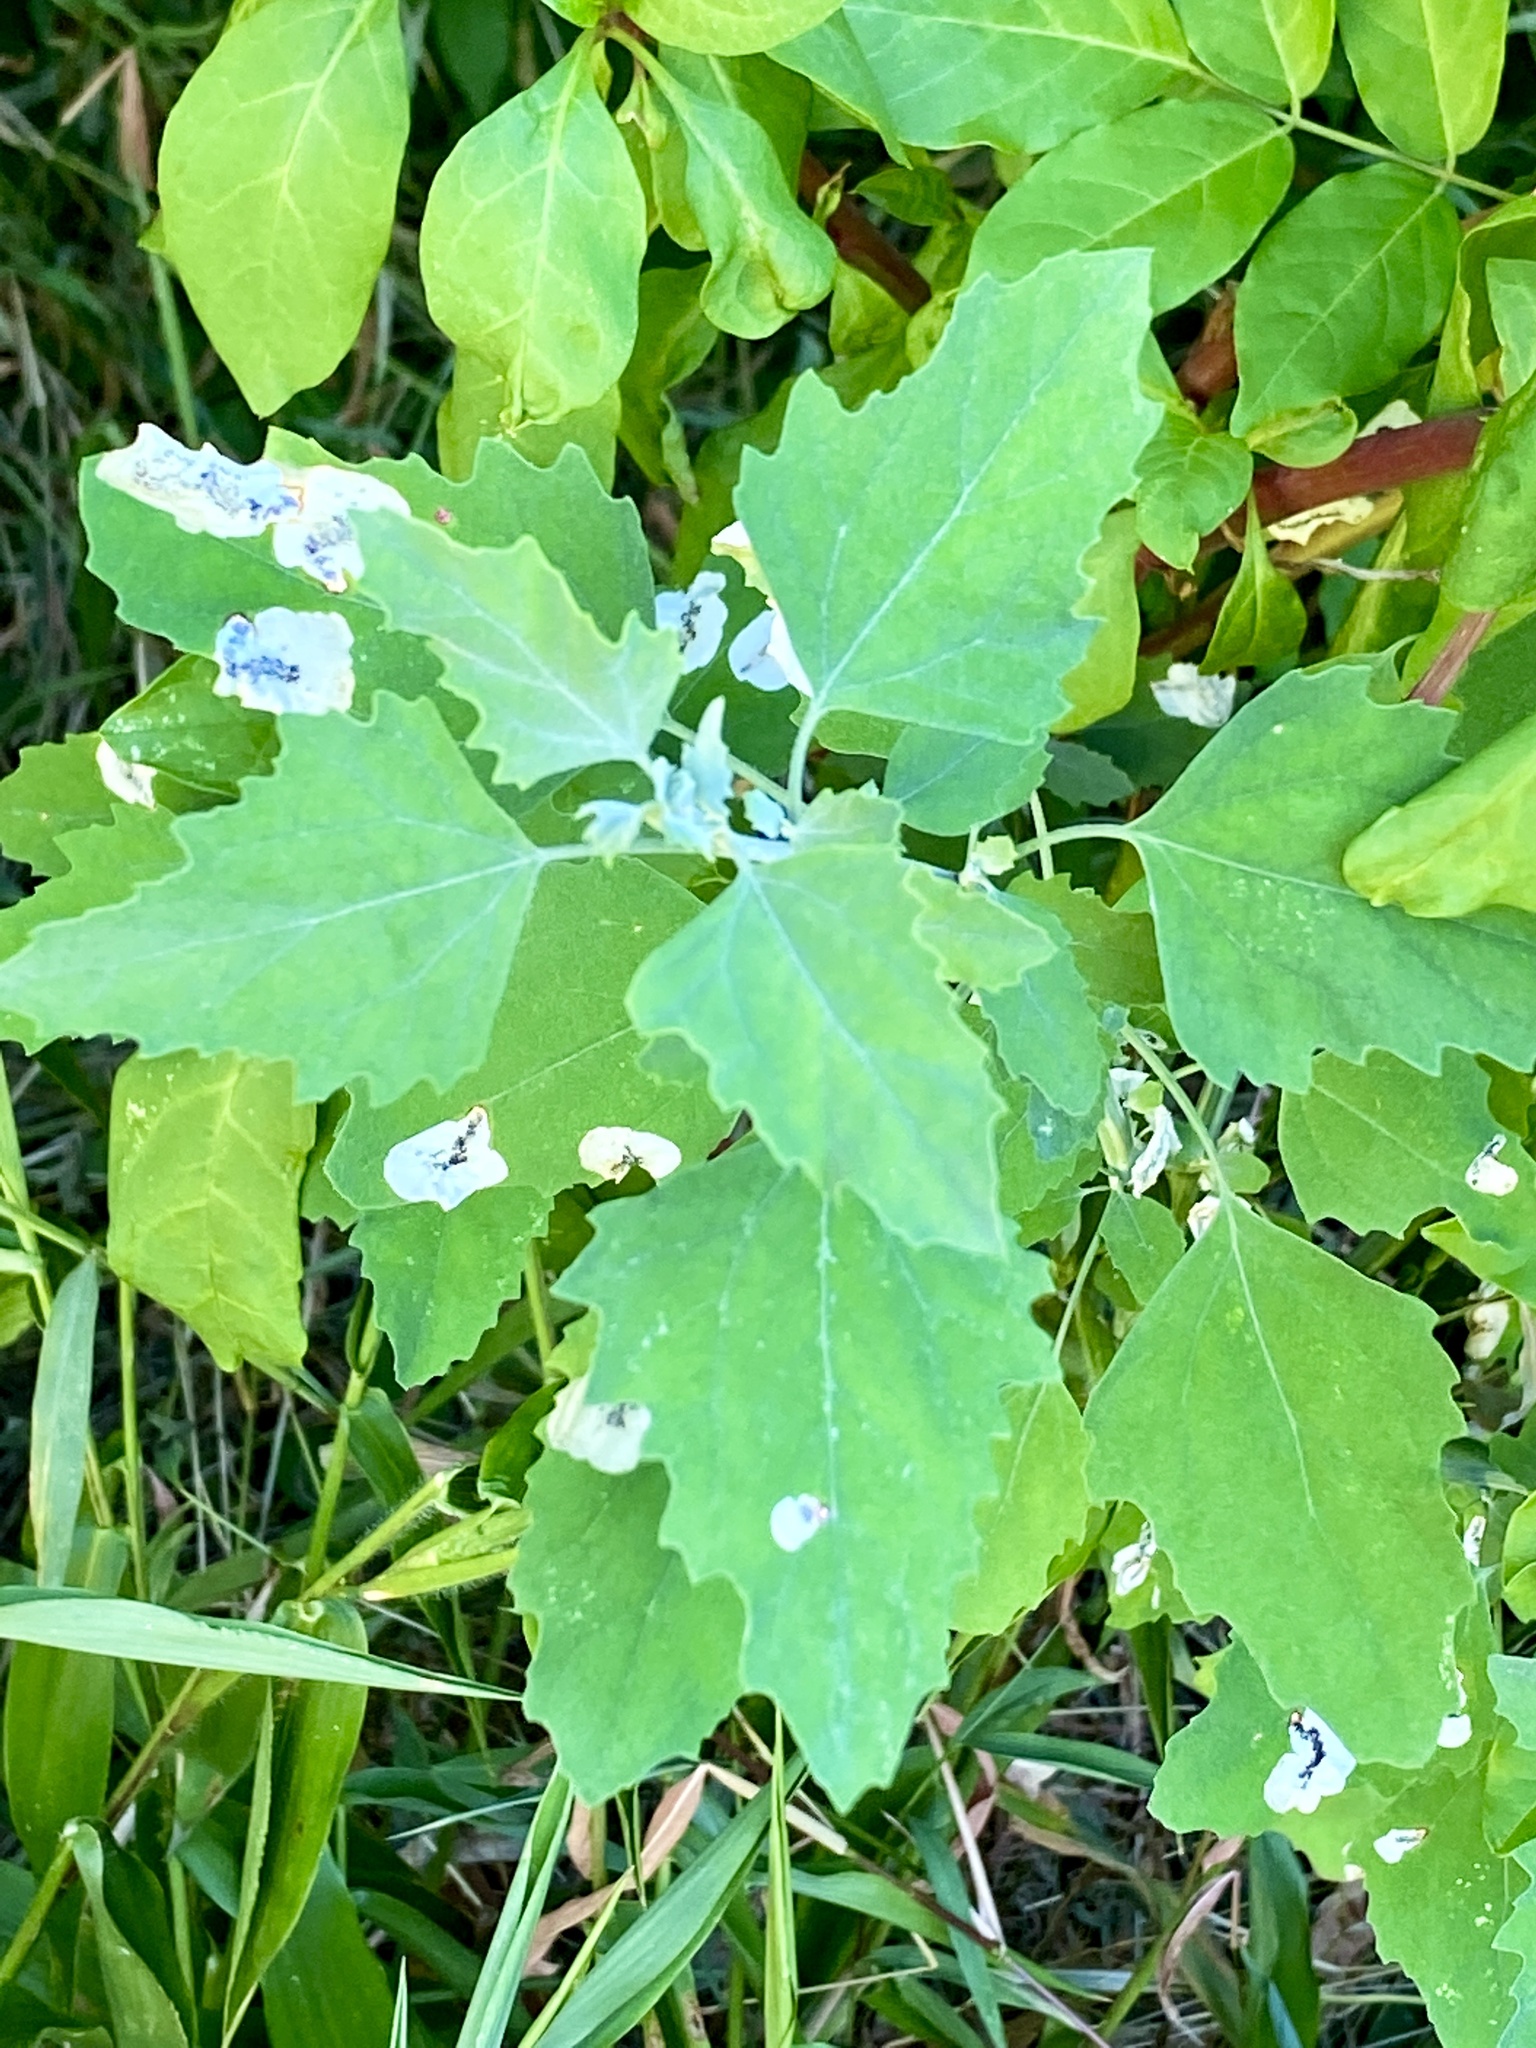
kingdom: Plantae
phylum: Tracheophyta
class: Magnoliopsida
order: Caryophyllales
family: Amaranthaceae
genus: Chenopodium
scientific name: Chenopodium album
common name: Fat-hen
